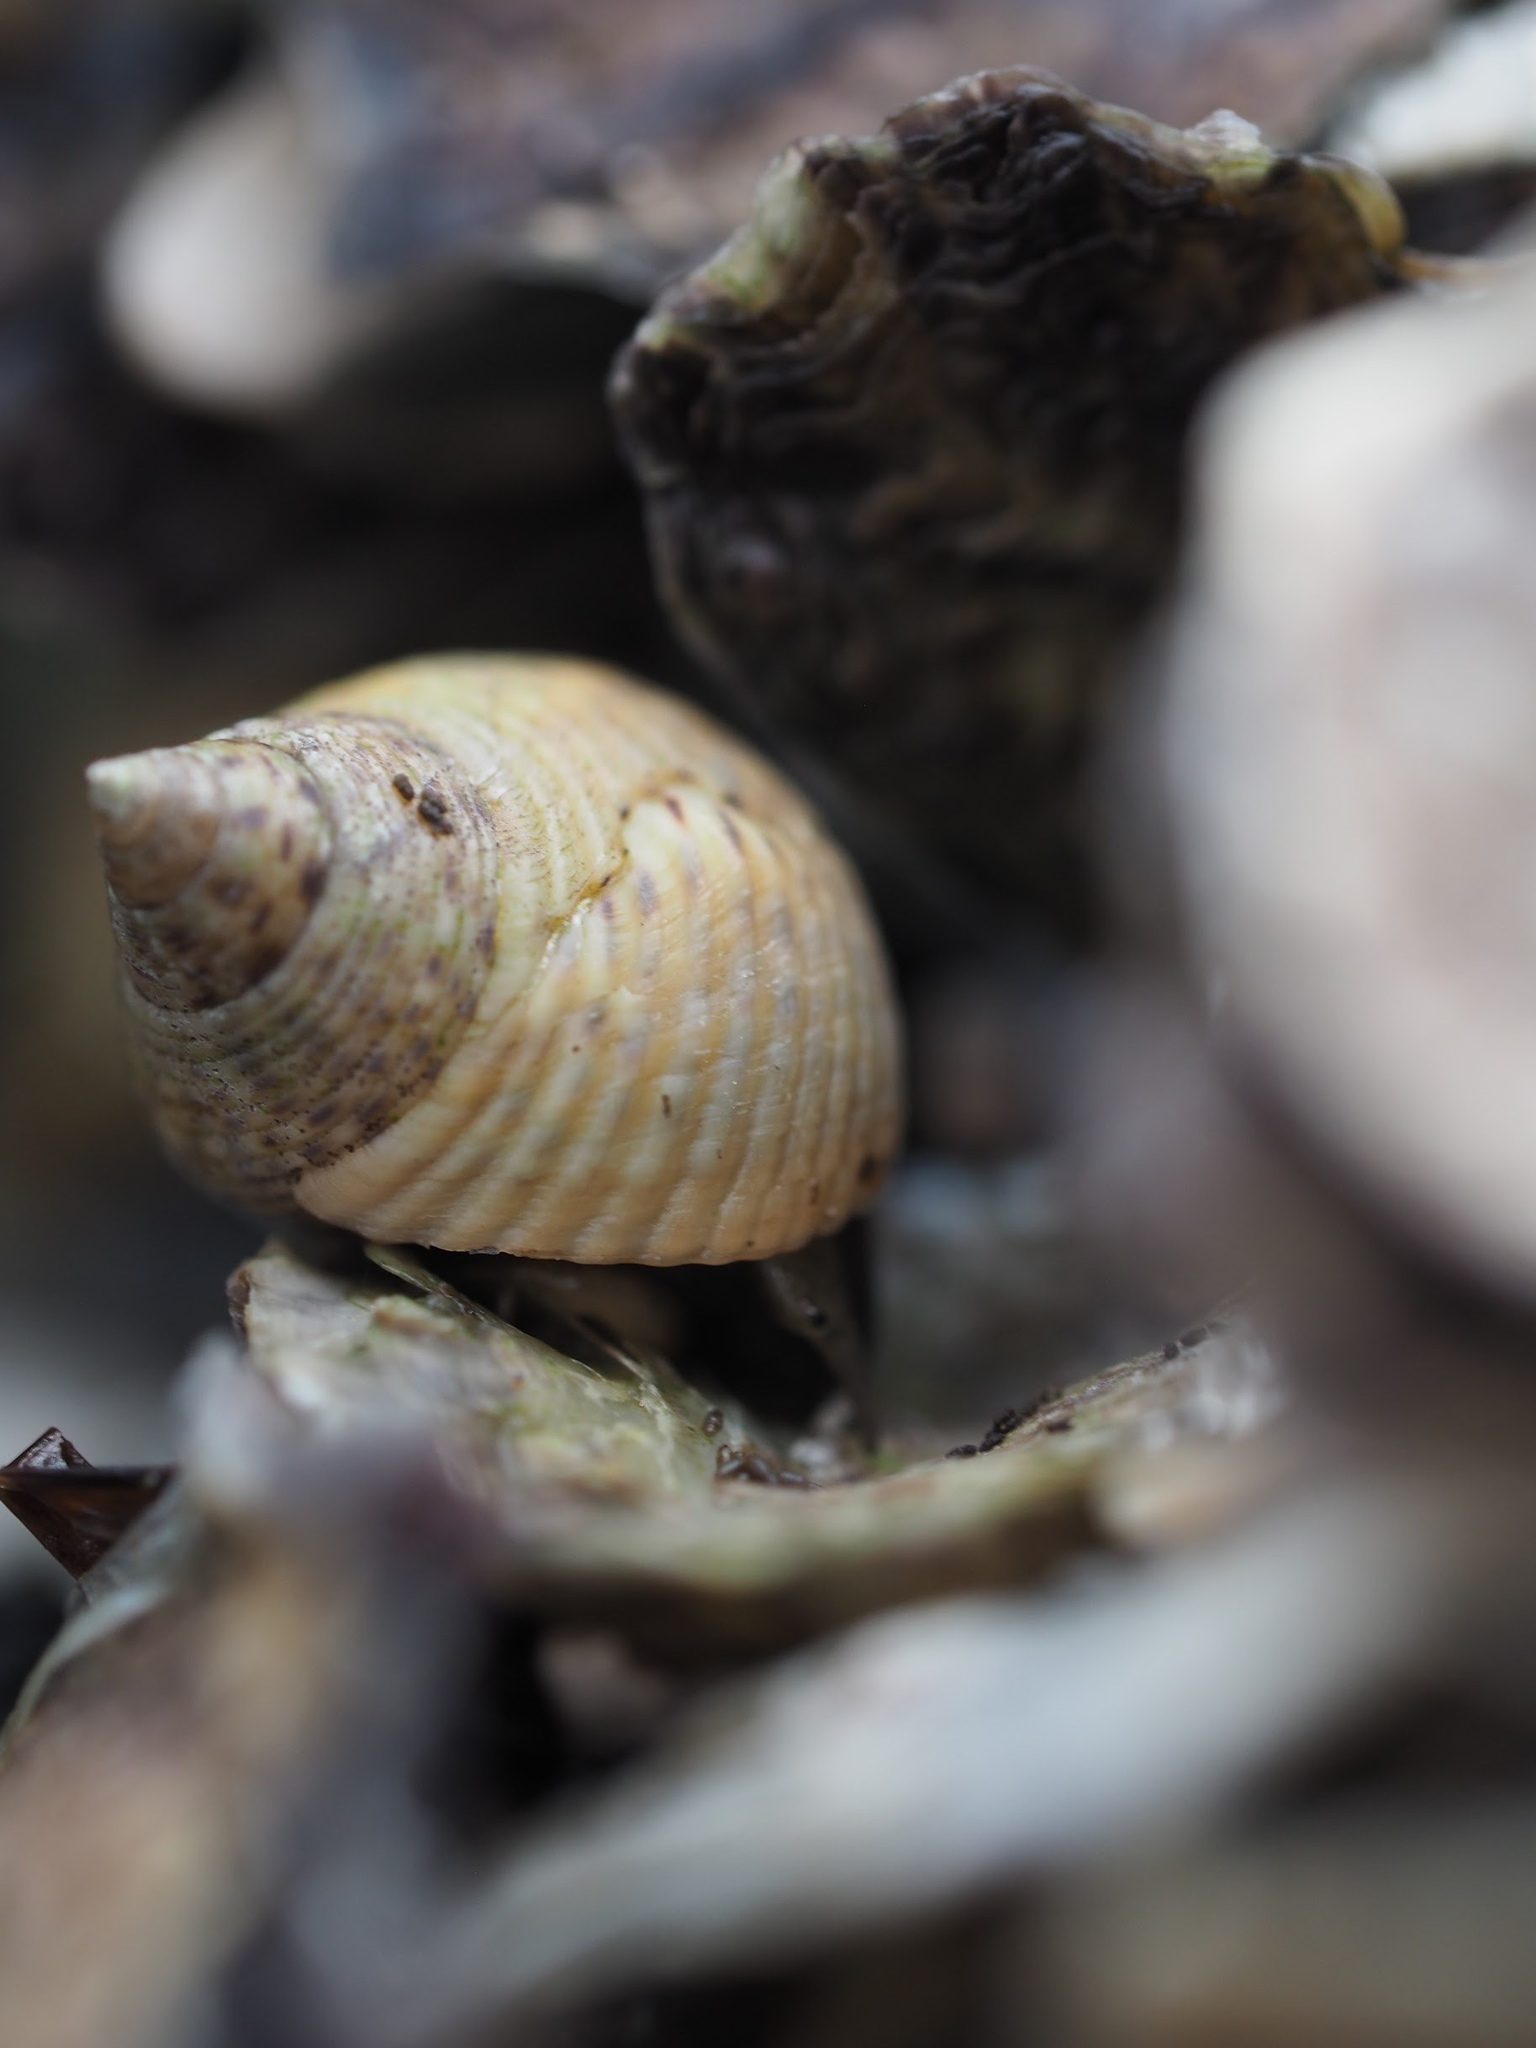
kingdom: Animalia
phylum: Mollusca
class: Gastropoda
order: Littorinimorpha
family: Littorinidae
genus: Littoraria
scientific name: Littoraria irrorata
